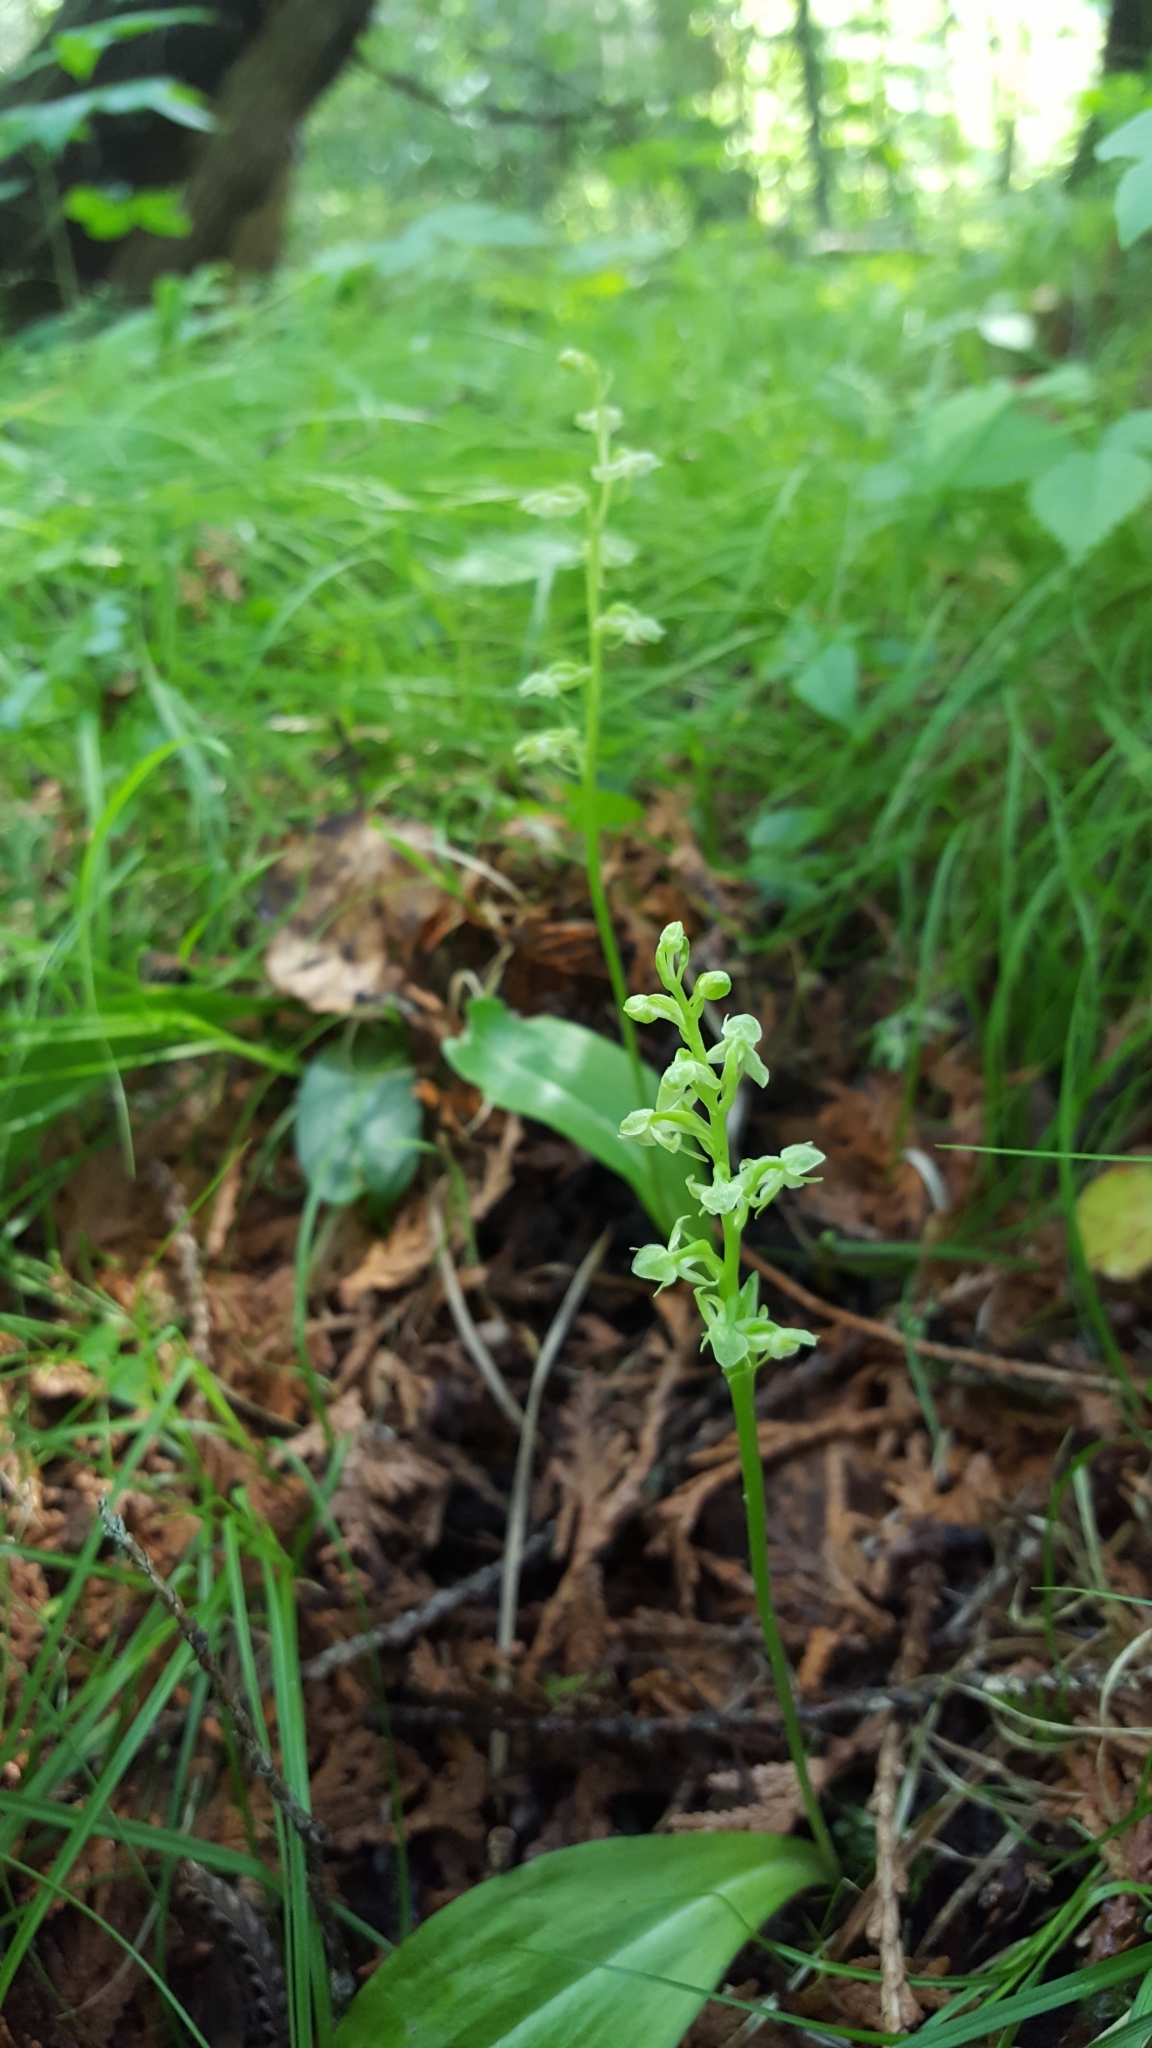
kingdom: Plantae
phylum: Tracheophyta
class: Liliopsida
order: Asparagales
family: Orchidaceae
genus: Platanthera
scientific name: Platanthera obtusata
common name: Blunt bog orchid
